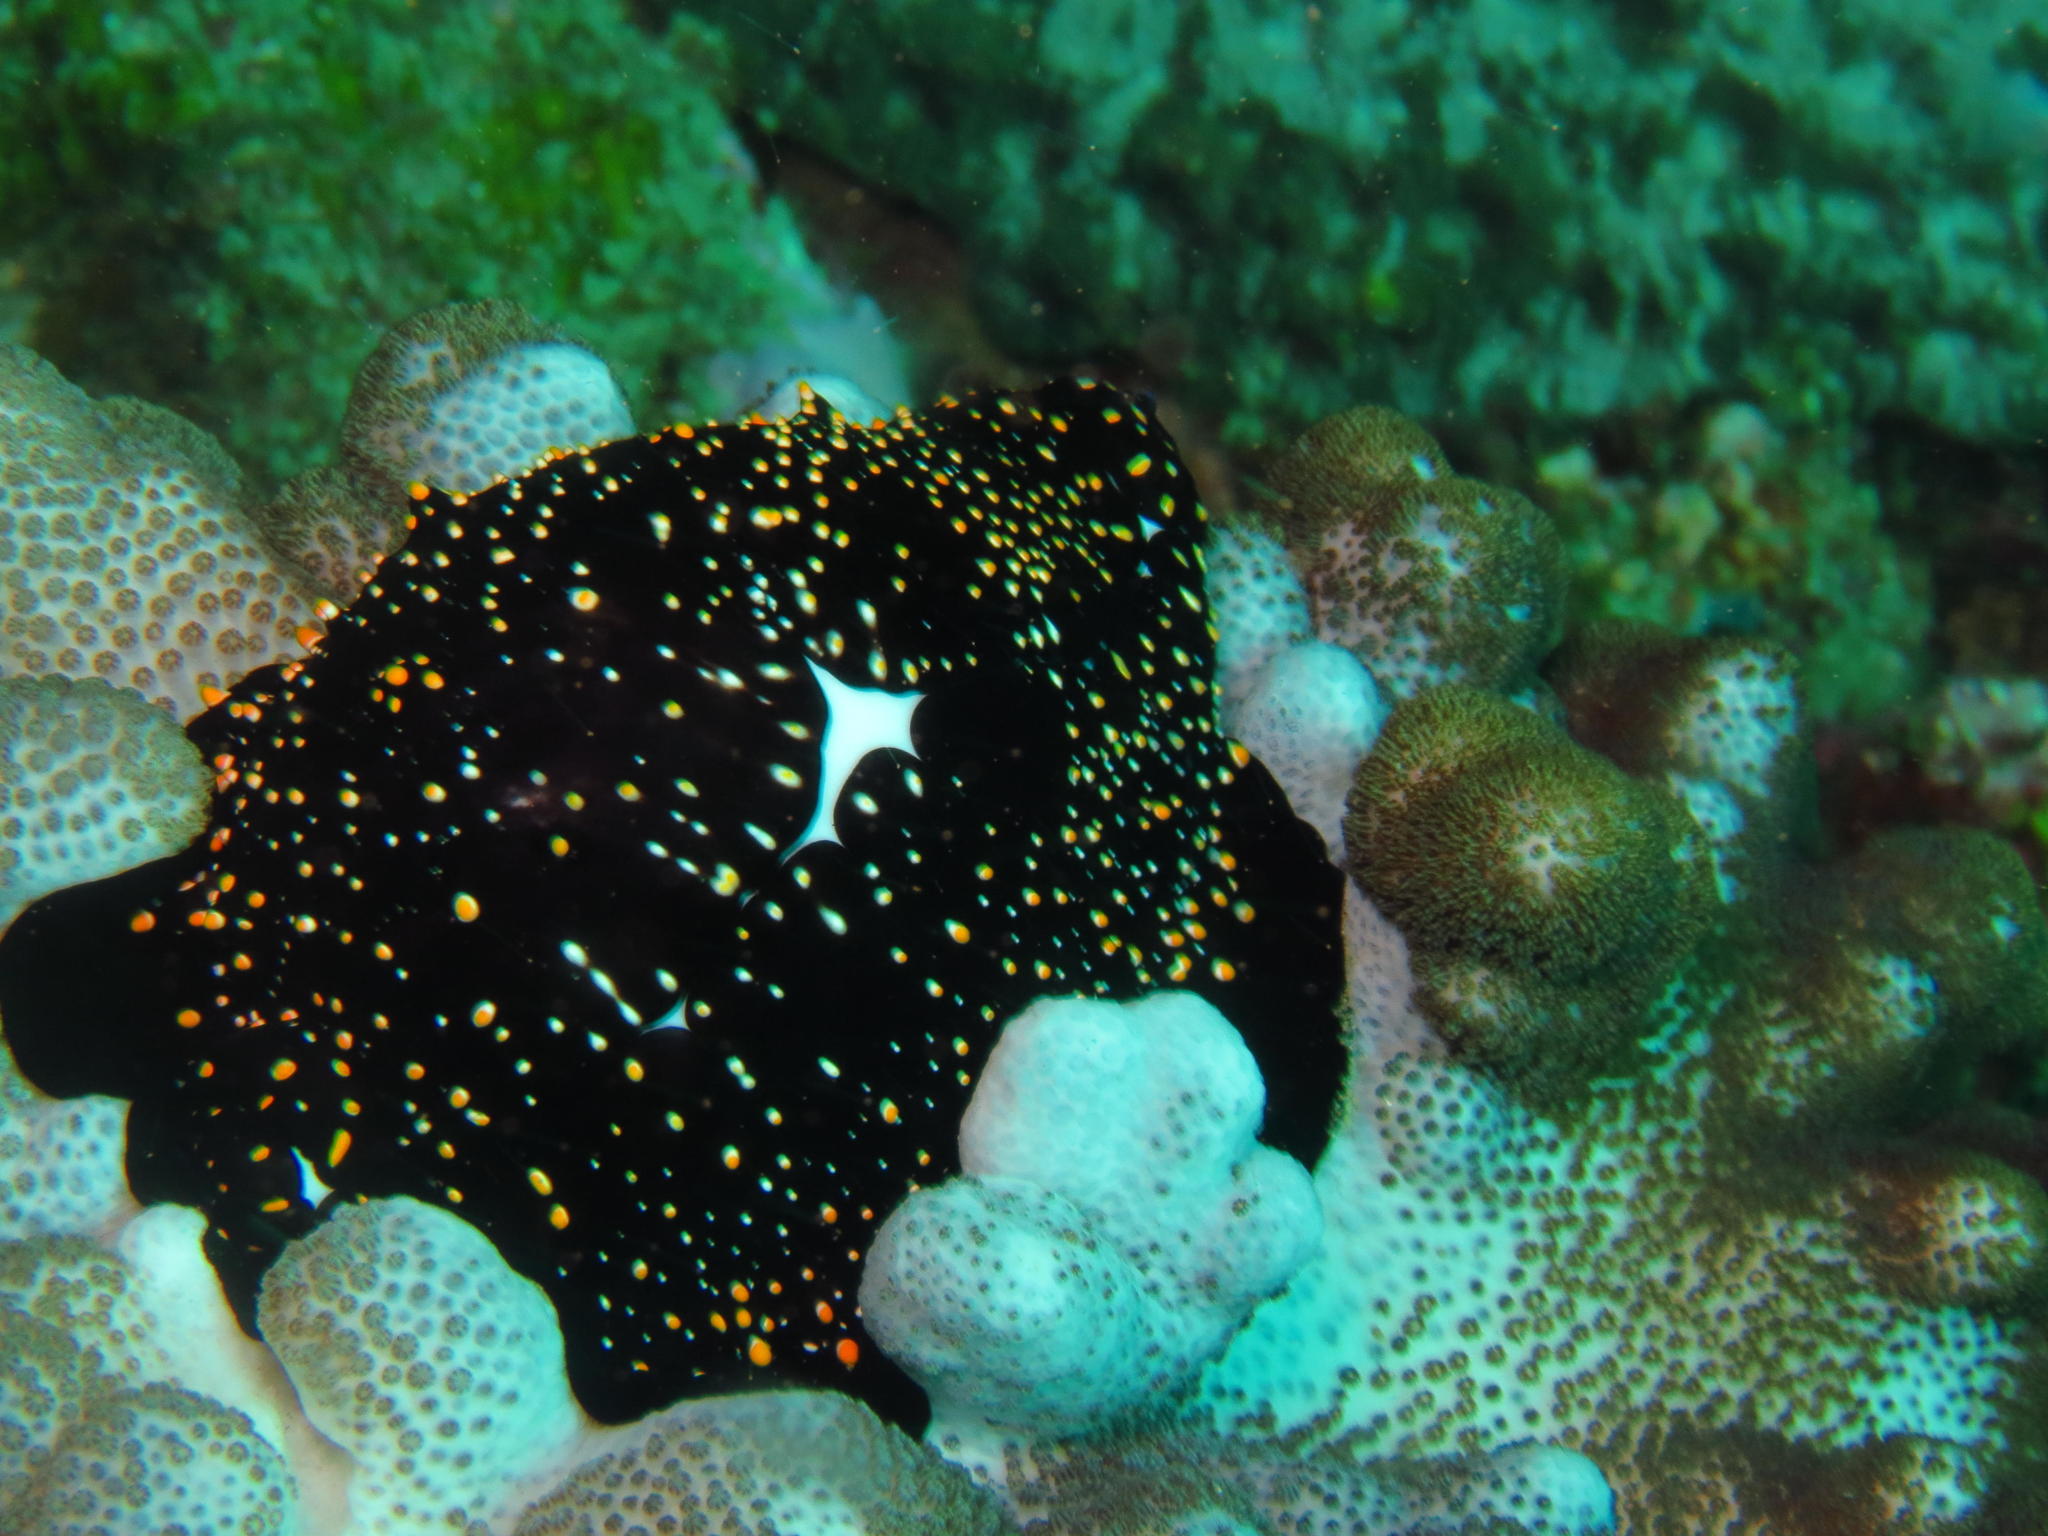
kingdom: Animalia
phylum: Mollusca
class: Gastropoda
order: Littorinimorpha
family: Ovulidae
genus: Ovula
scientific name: Ovula ovum
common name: Common egg cowrie
